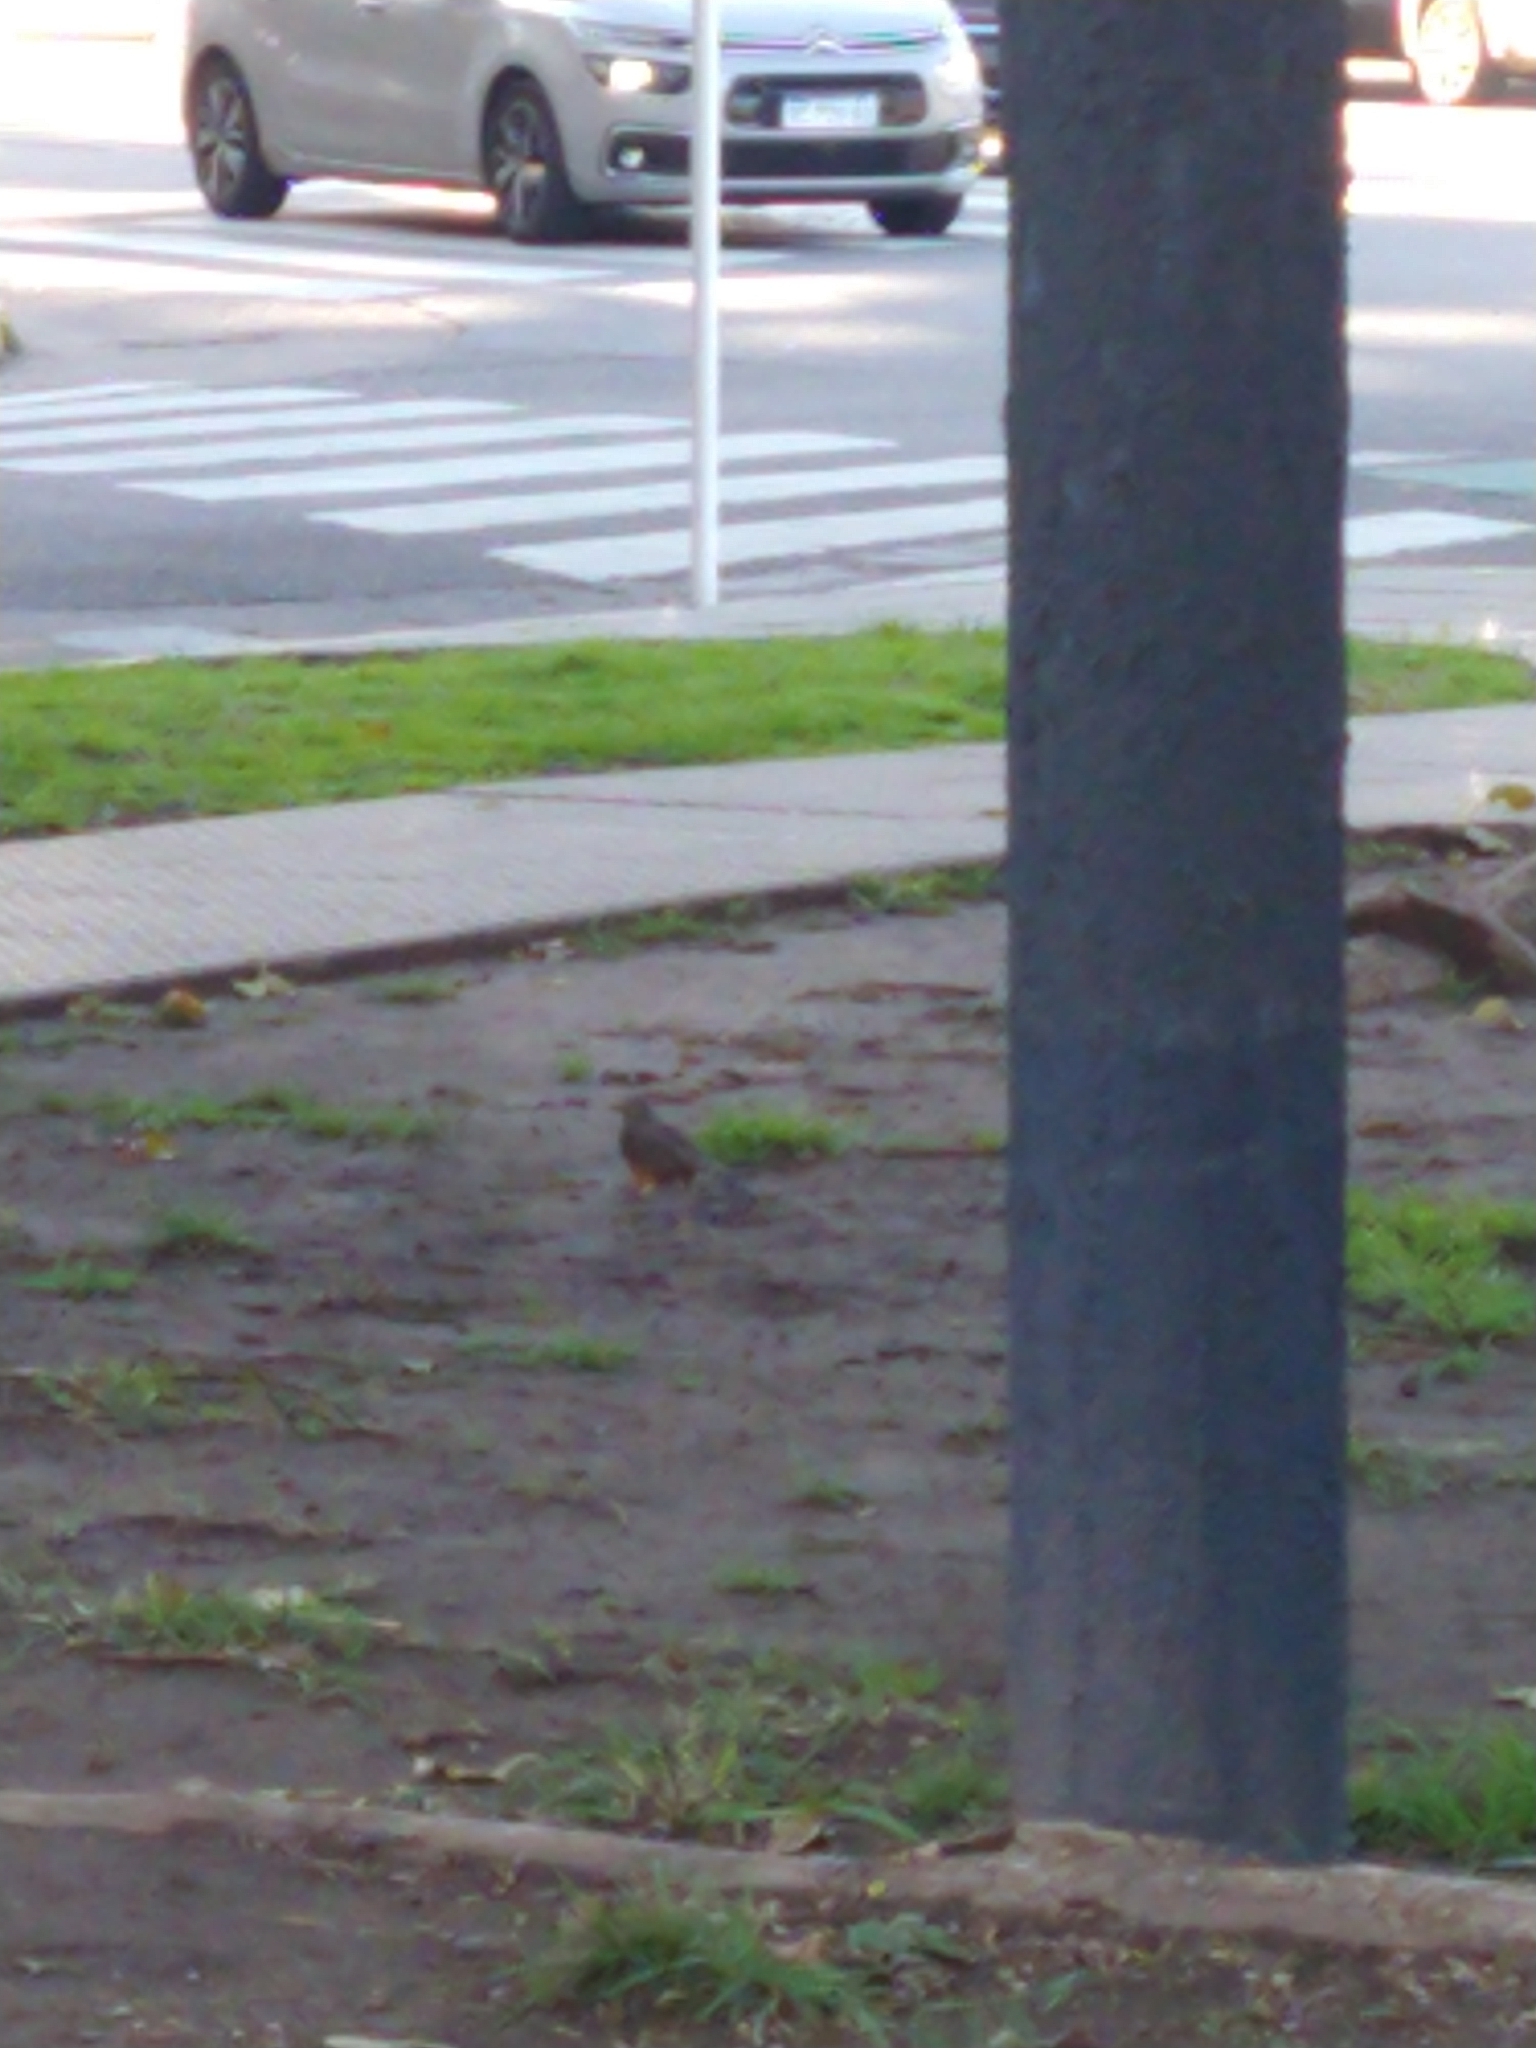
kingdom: Animalia
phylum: Chordata
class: Aves
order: Passeriformes
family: Turdidae
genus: Turdus
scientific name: Turdus rufiventris
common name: Rufous-bellied thrush
